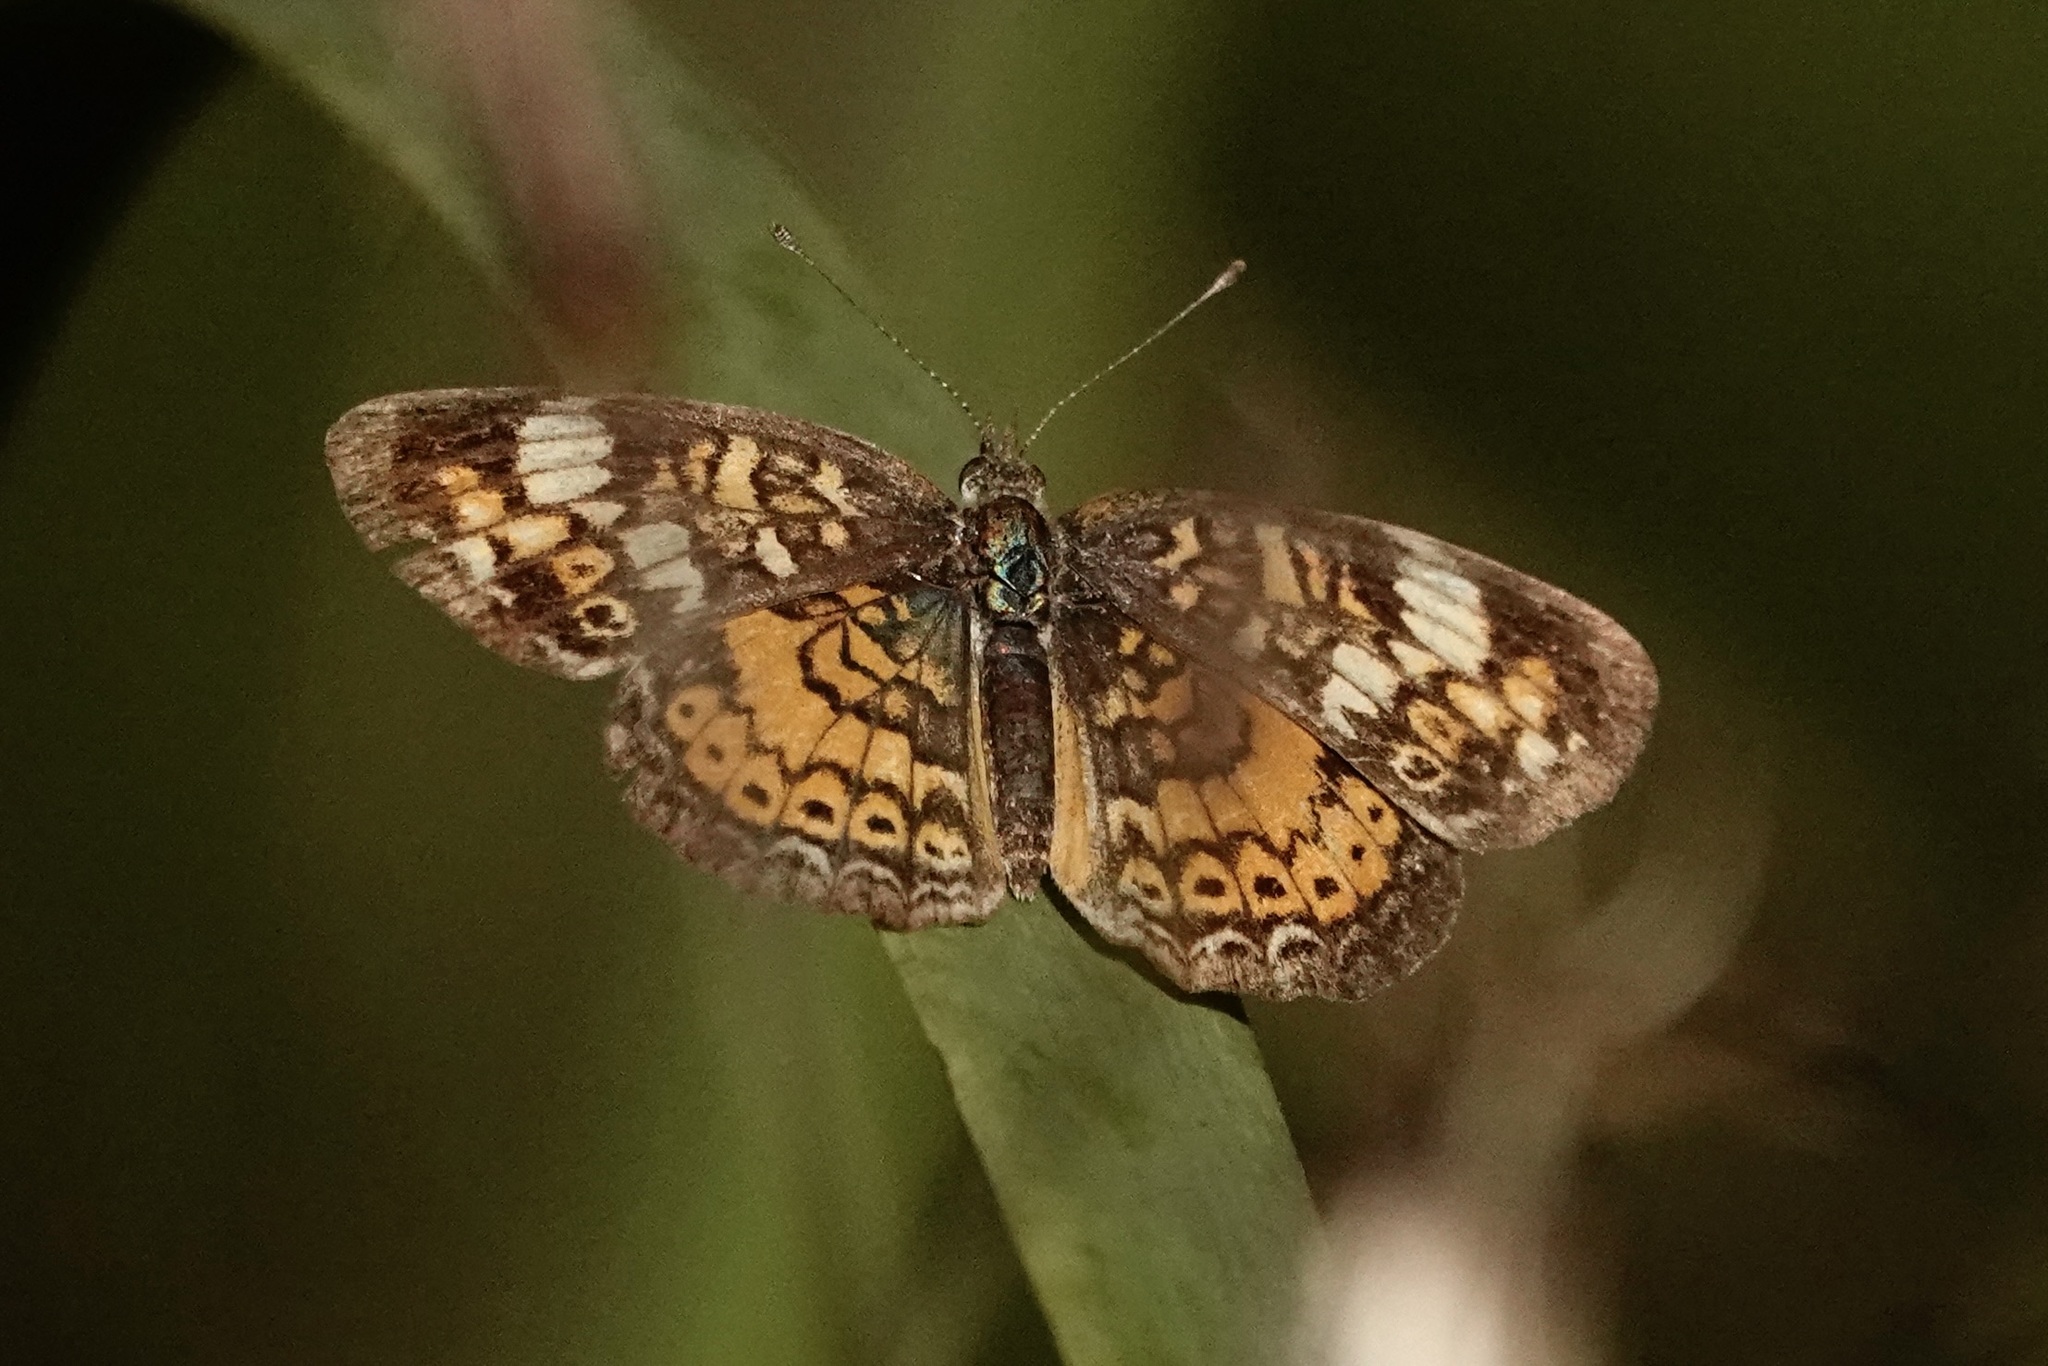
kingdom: Animalia
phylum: Arthropoda
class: Insecta
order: Lepidoptera
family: Nymphalidae
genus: Phyciodes
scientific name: Phyciodes tharos
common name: Pearl crescent
